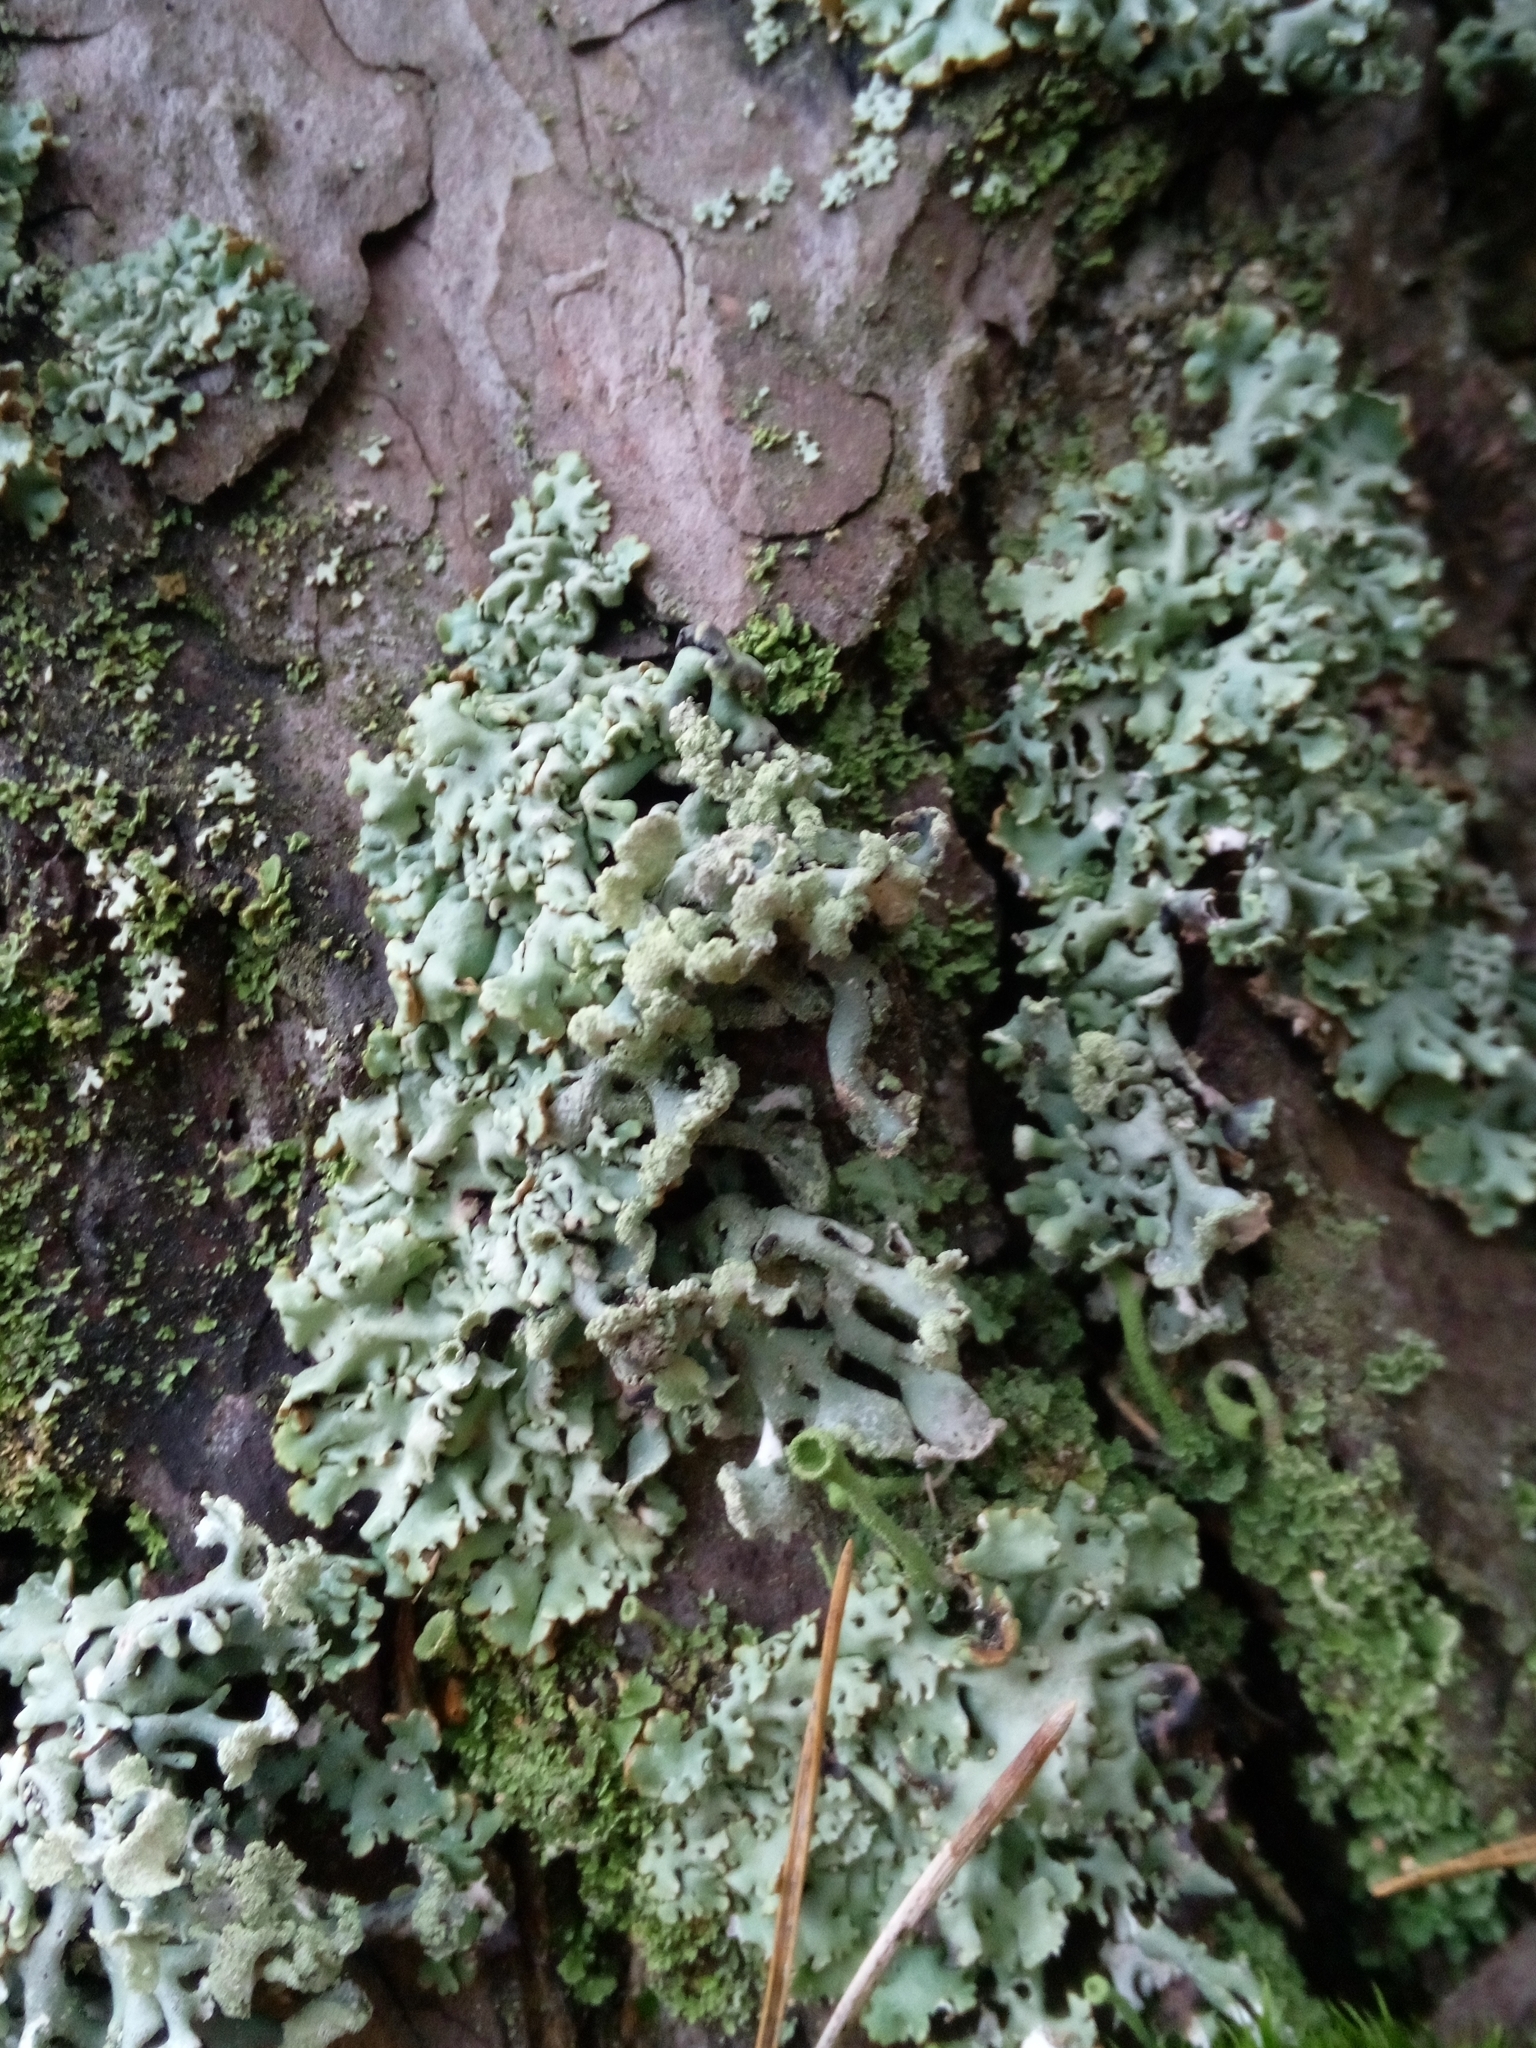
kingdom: Fungi
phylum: Ascomycota
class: Lecanoromycetes
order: Lecanorales
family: Parmeliaceae
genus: Hypogymnia
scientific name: Hypogymnia physodes
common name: Dark crottle
